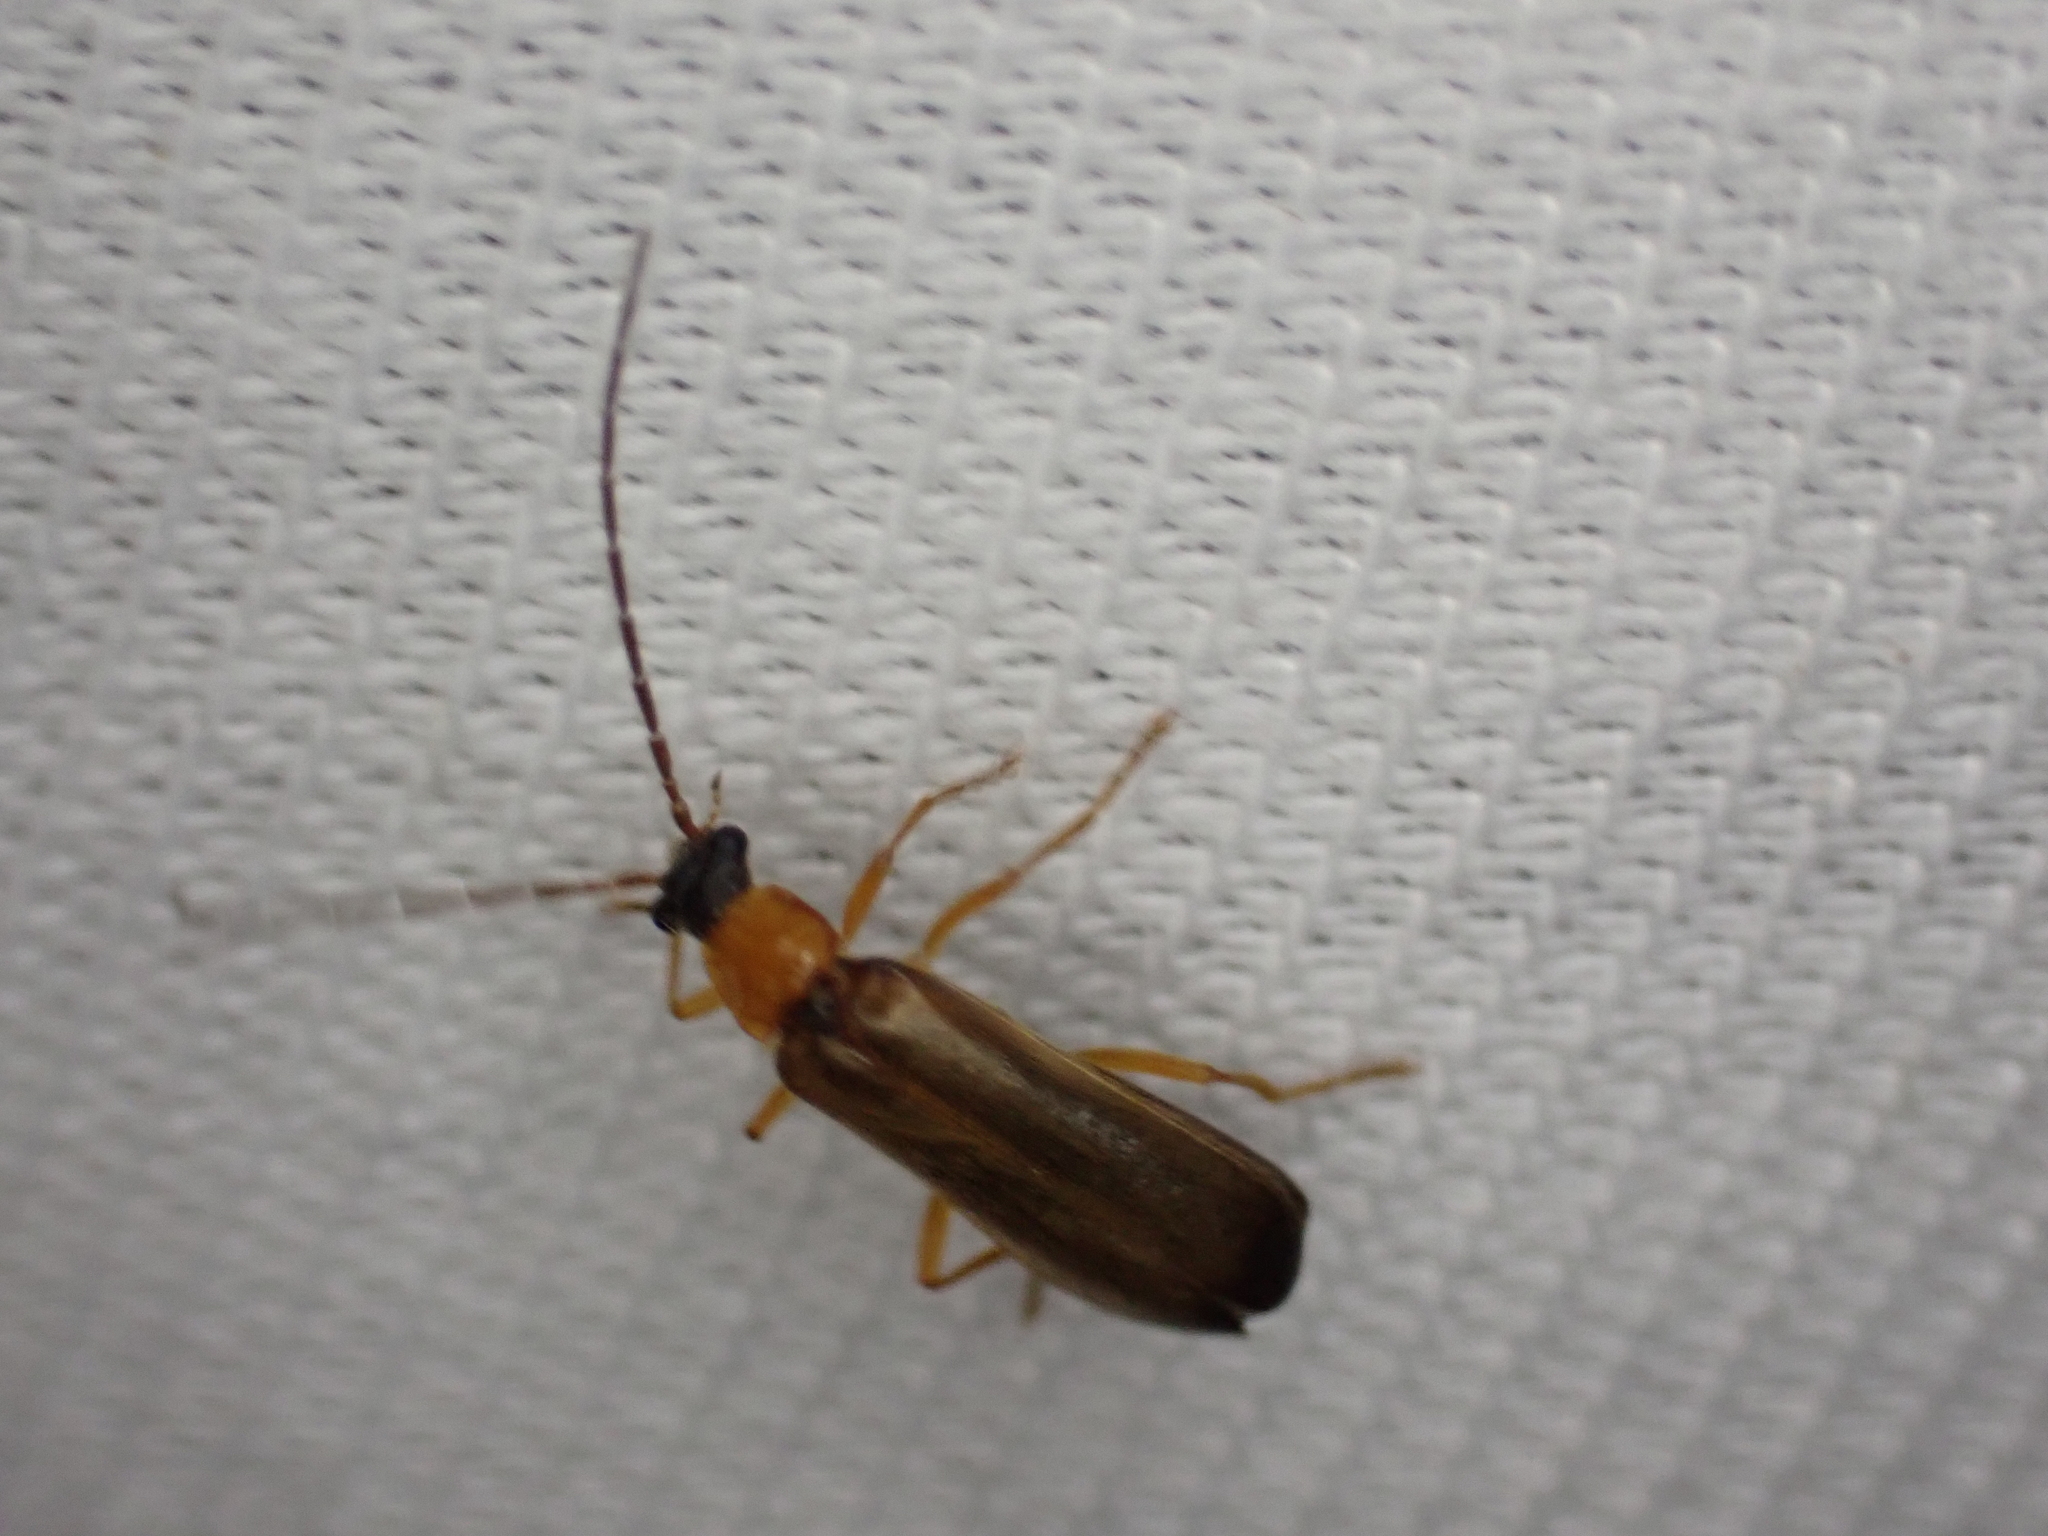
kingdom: Animalia
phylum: Arthropoda
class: Insecta
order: Coleoptera
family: Cantharidae
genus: Rhagonycha
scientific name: Rhagonycha lutea
